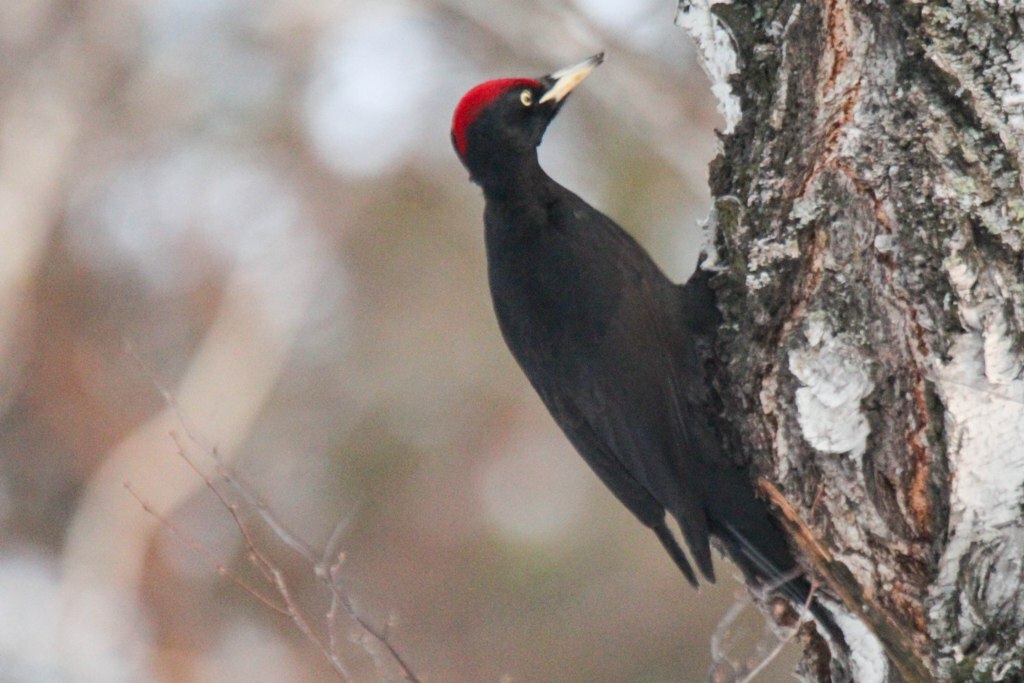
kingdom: Animalia
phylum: Chordata
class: Aves
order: Piciformes
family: Picidae
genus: Dryocopus
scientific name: Dryocopus martius
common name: Black woodpecker
